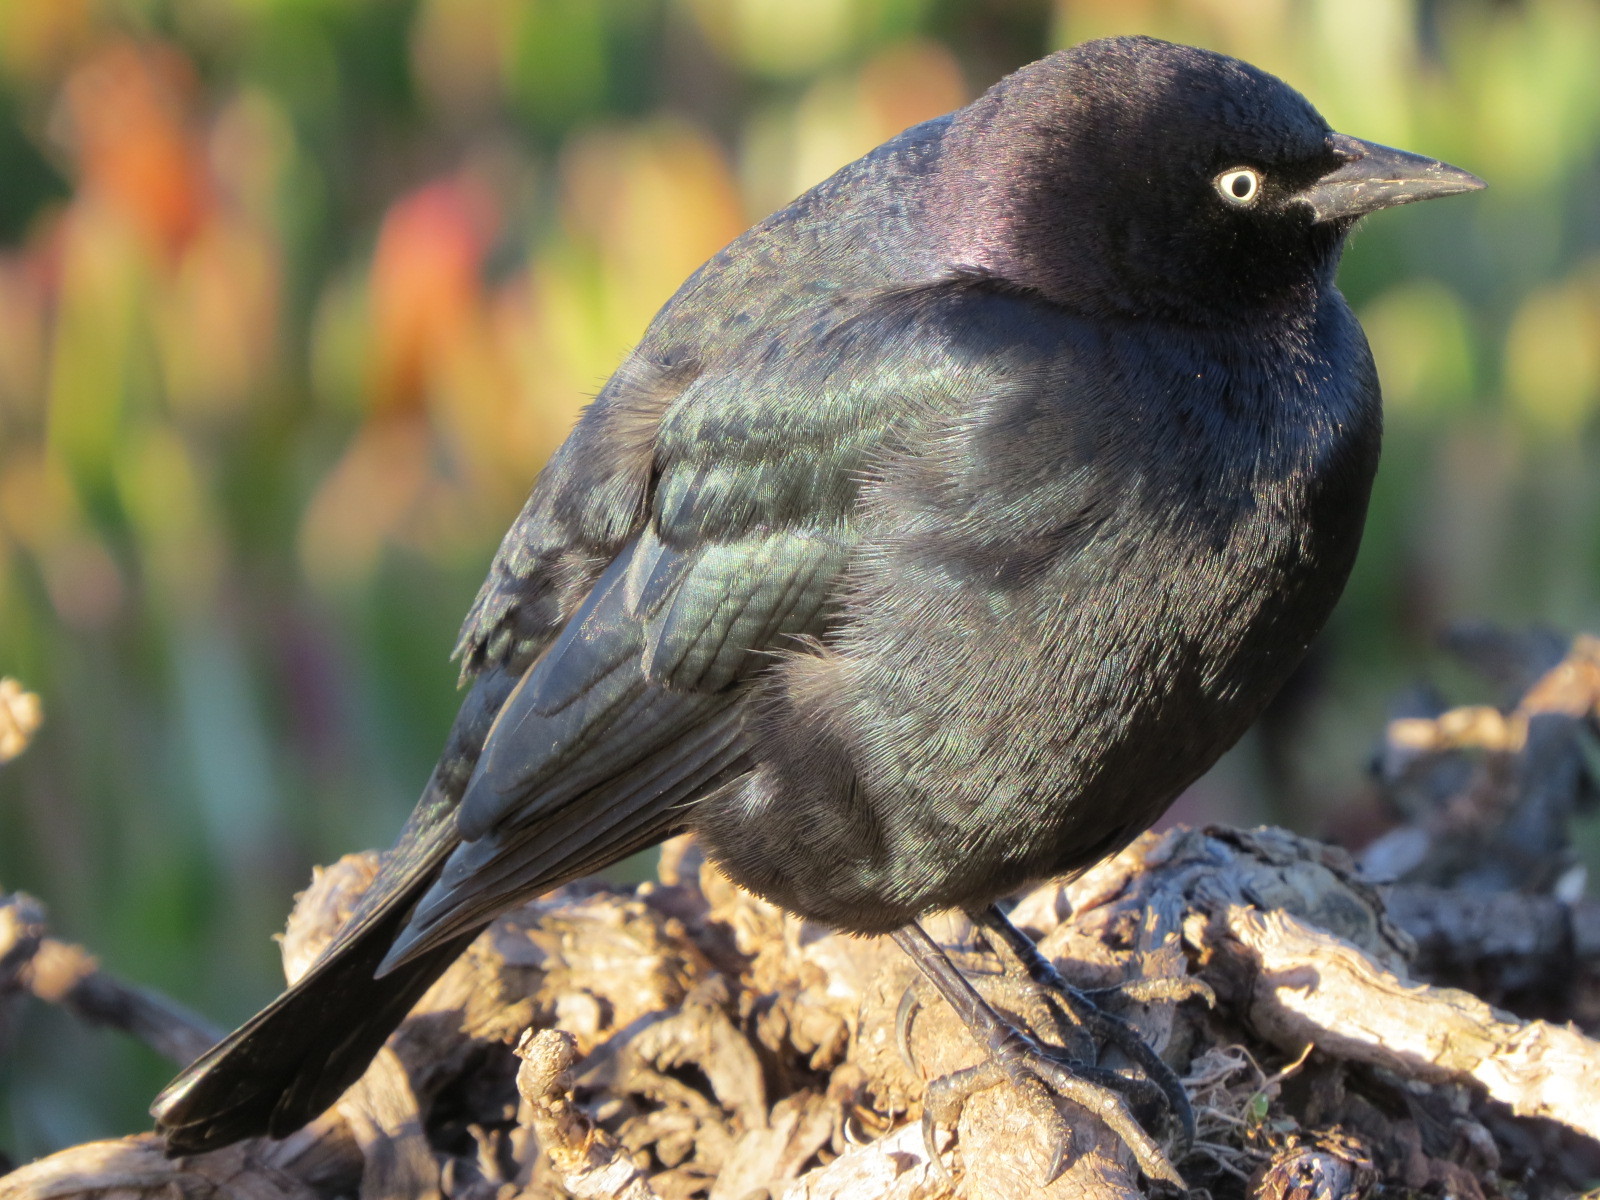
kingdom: Animalia
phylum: Chordata
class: Aves
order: Passeriformes
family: Icteridae
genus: Euphagus
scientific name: Euphagus cyanocephalus
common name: Brewer's blackbird
